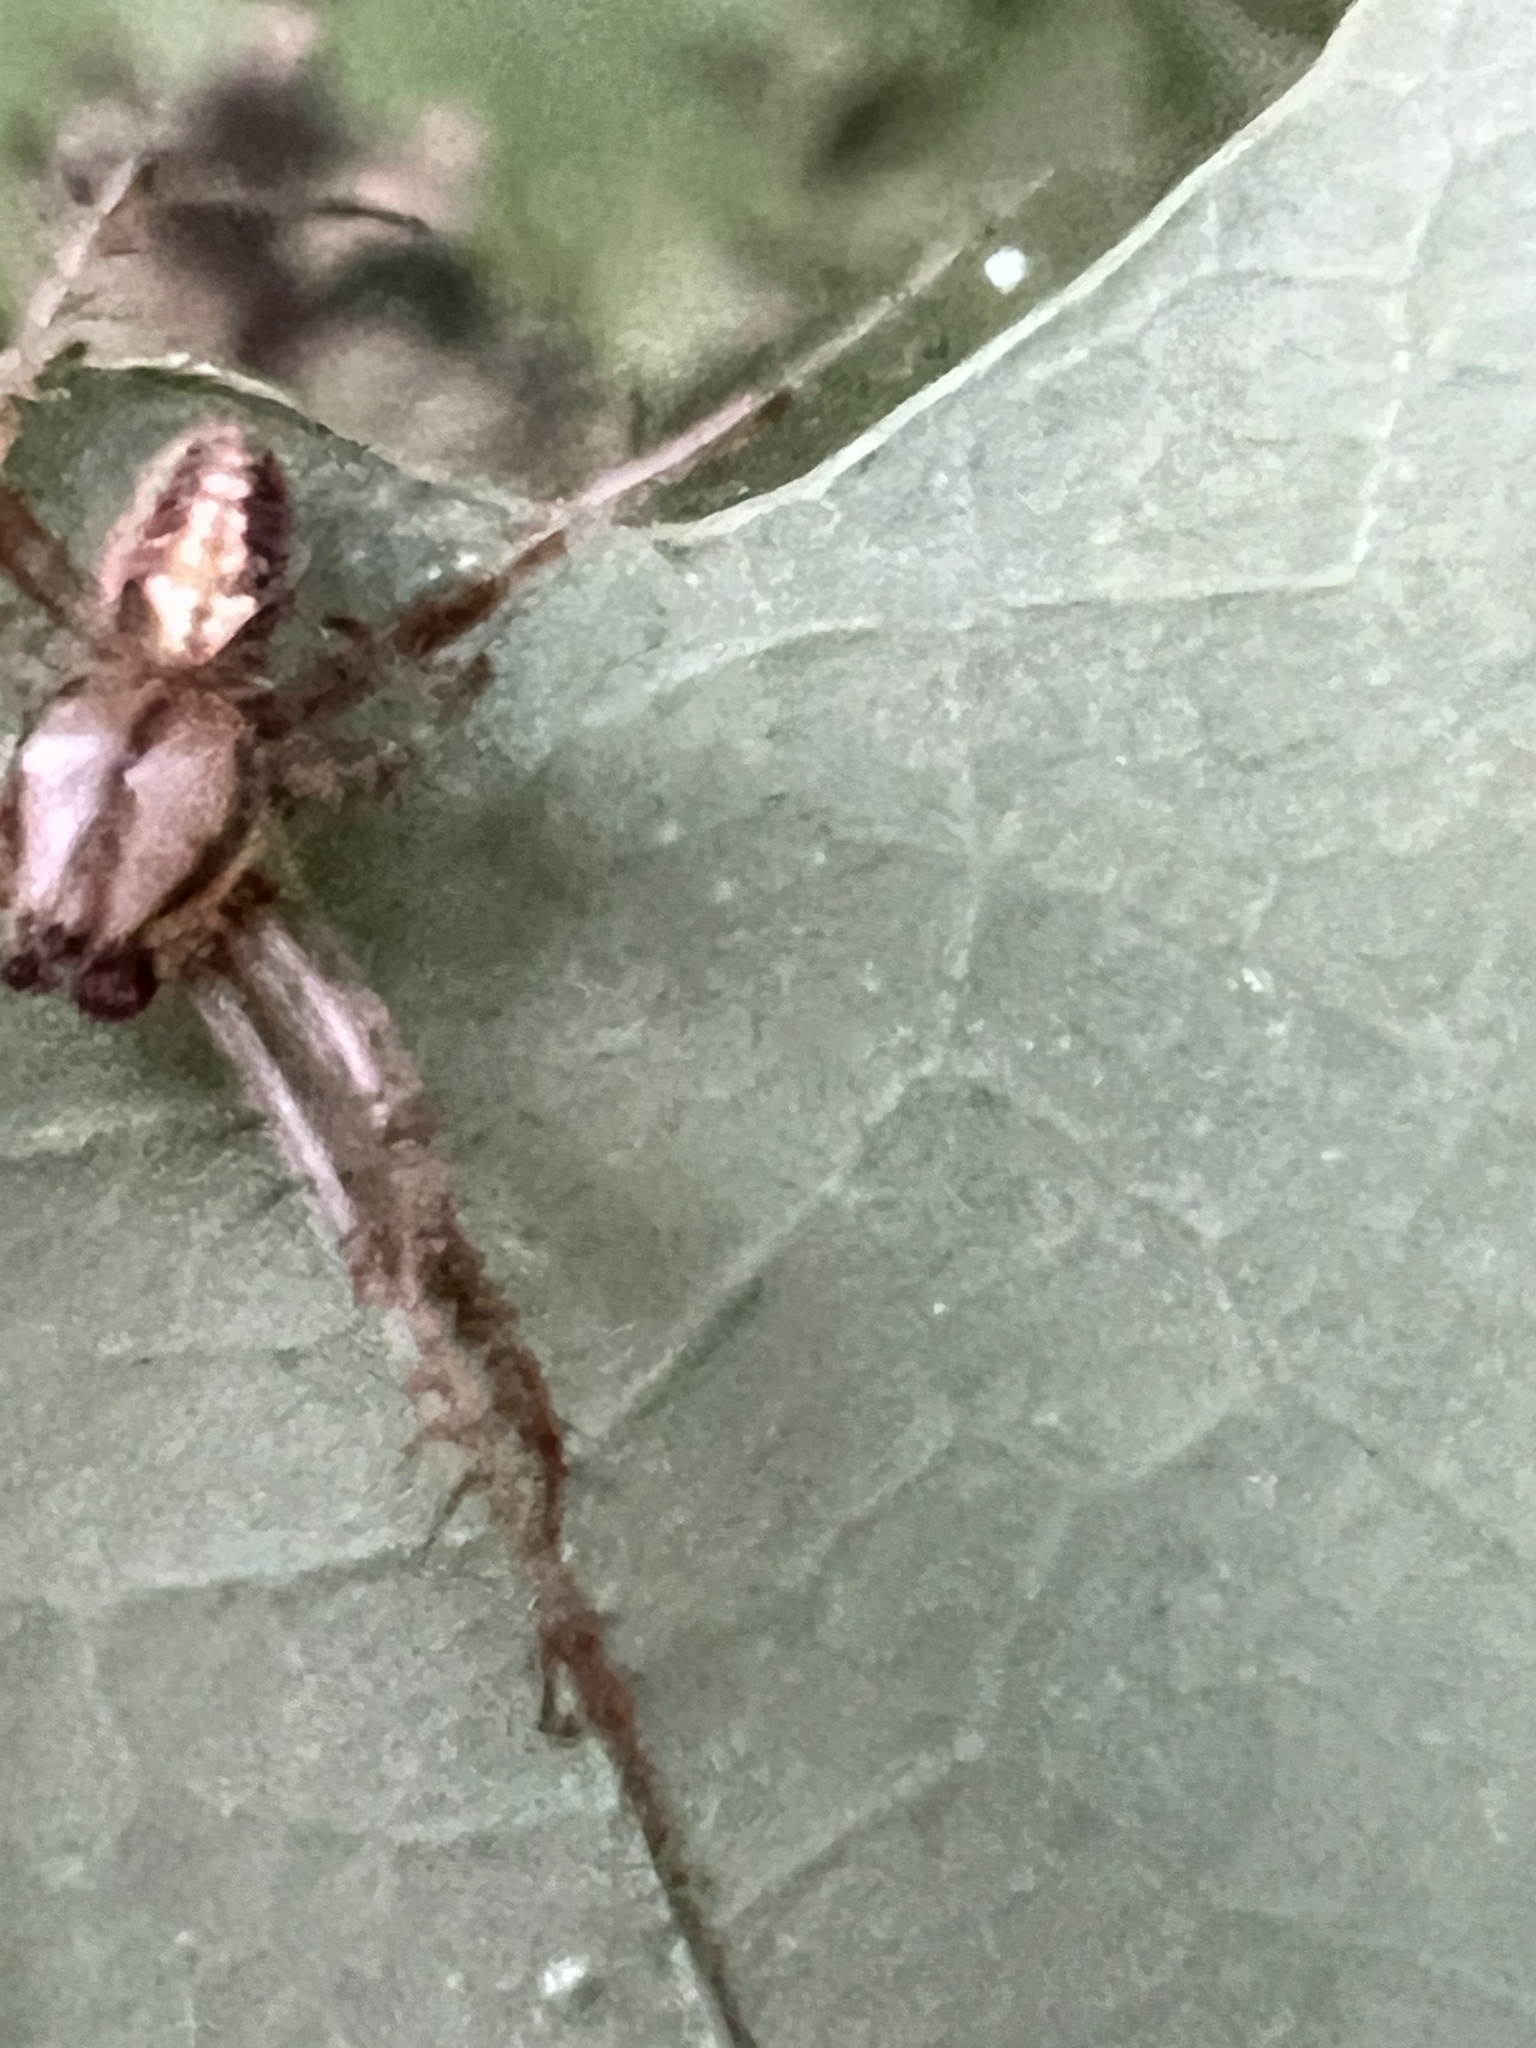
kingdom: Animalia
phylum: Arthropoda
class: Arachnida
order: Araneae
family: Araneidae
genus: Neoscona
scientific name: Neoscona arabesca
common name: Orb weavers
